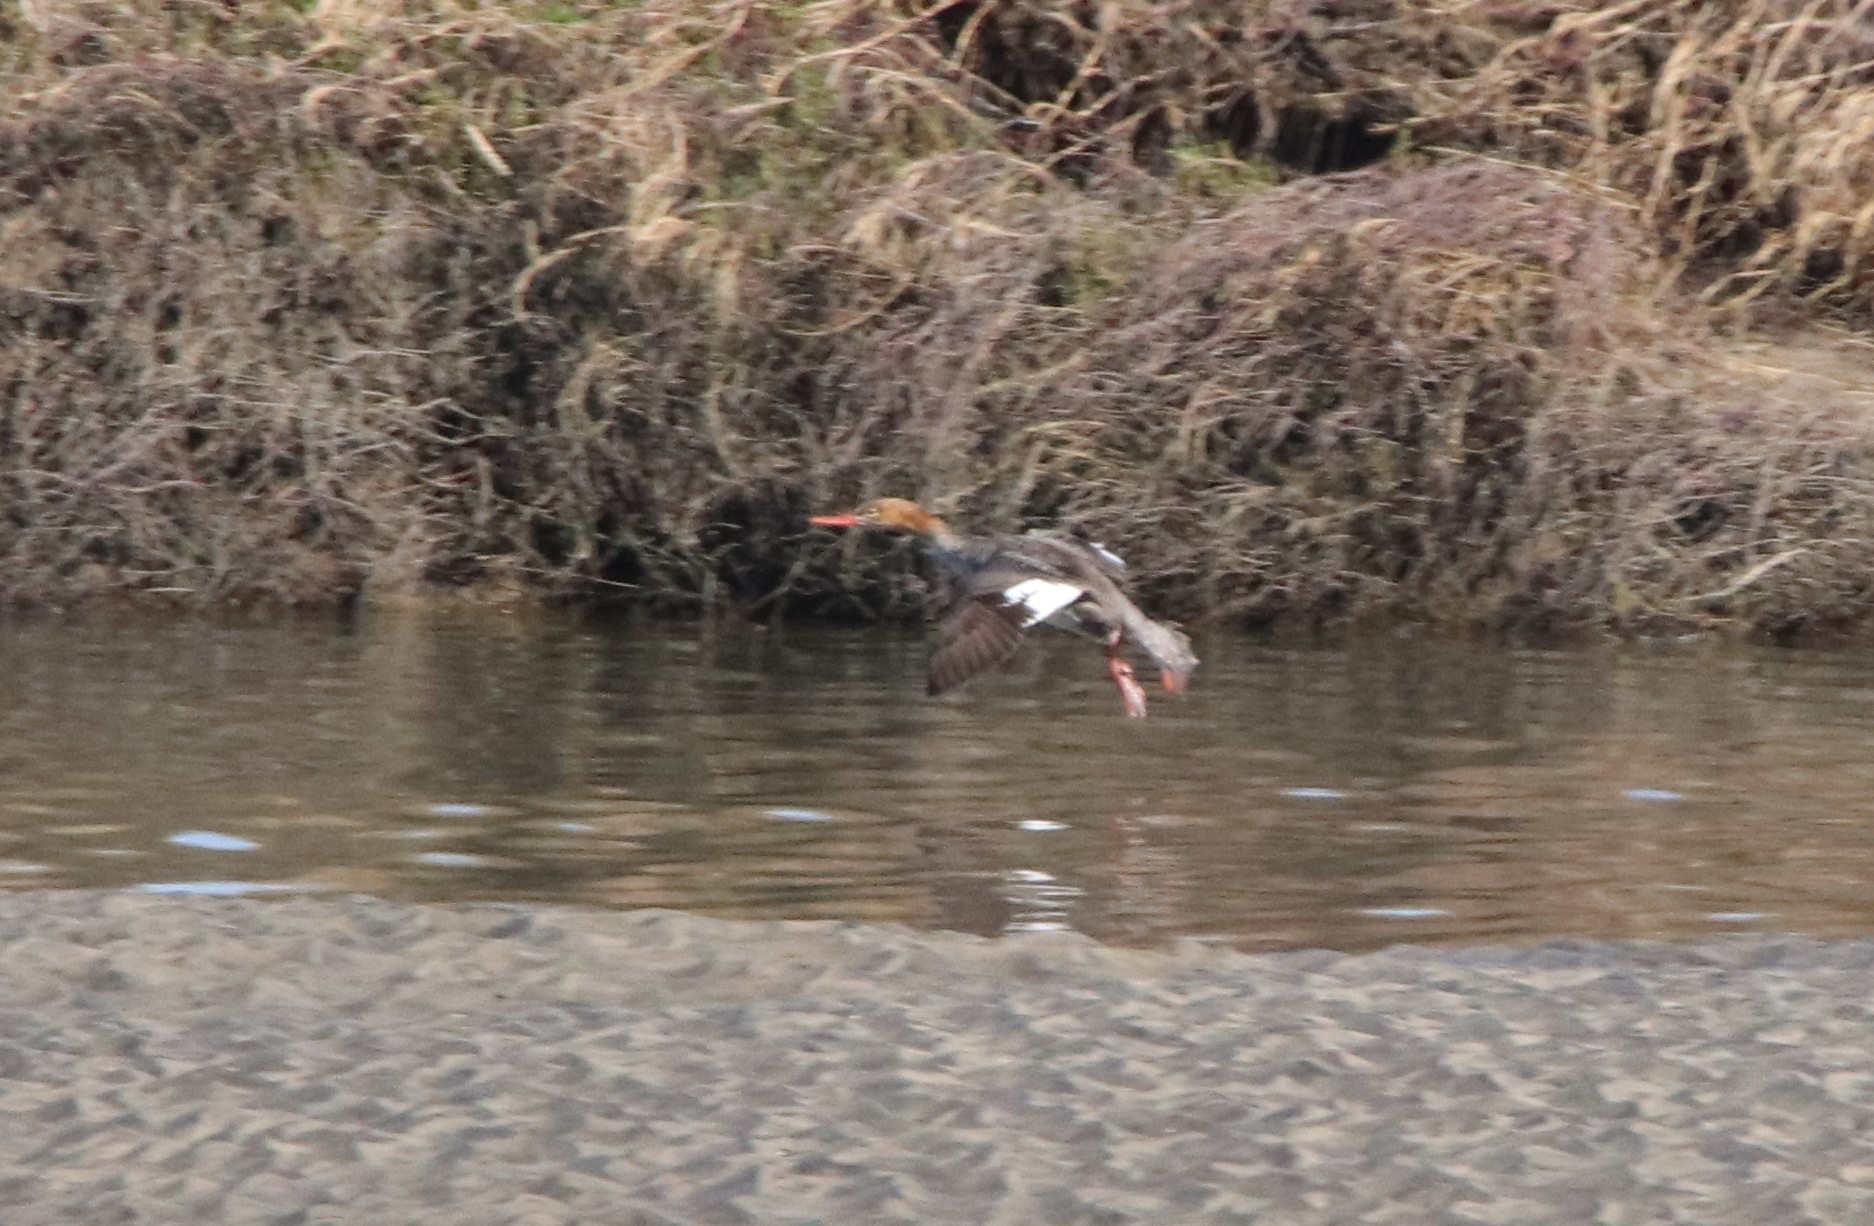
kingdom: Animalia
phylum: Chordata
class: Aves
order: Anseriformes
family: Anatidae
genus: Mergus
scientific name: Mergus serrator
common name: Red-breasted merganser
